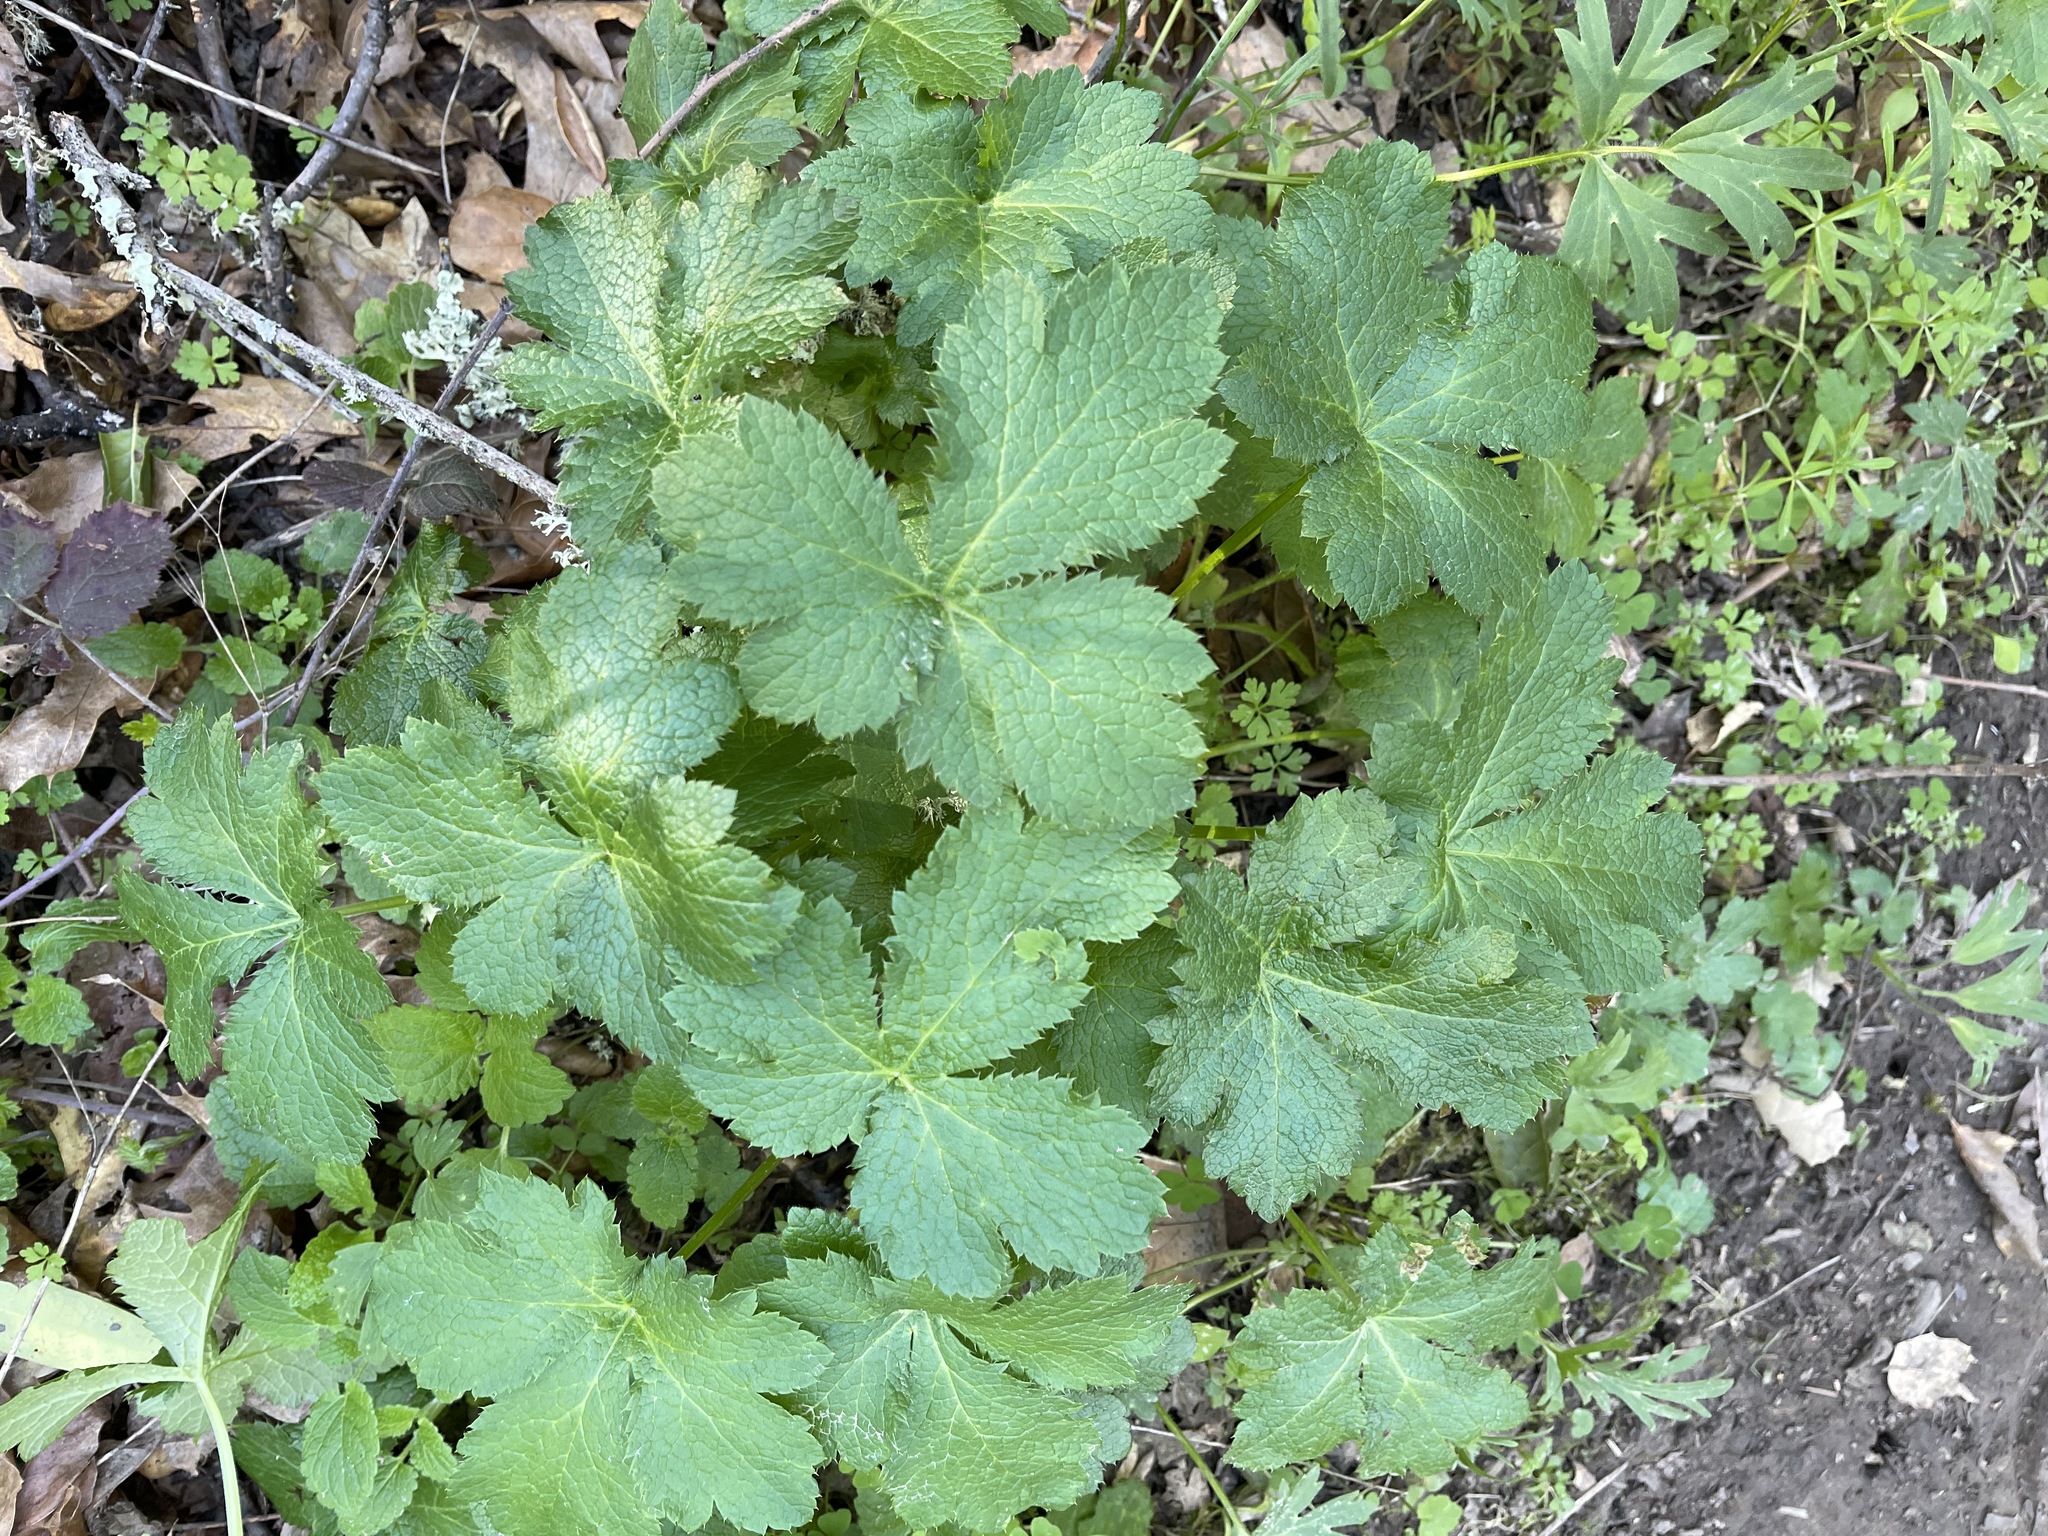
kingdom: Plantae
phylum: Tracheophyta
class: Magnoliopsida
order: Apiales
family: Apiaceae
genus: Sanicula
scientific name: Sanicula crassicaulis
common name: Western snakeroot
